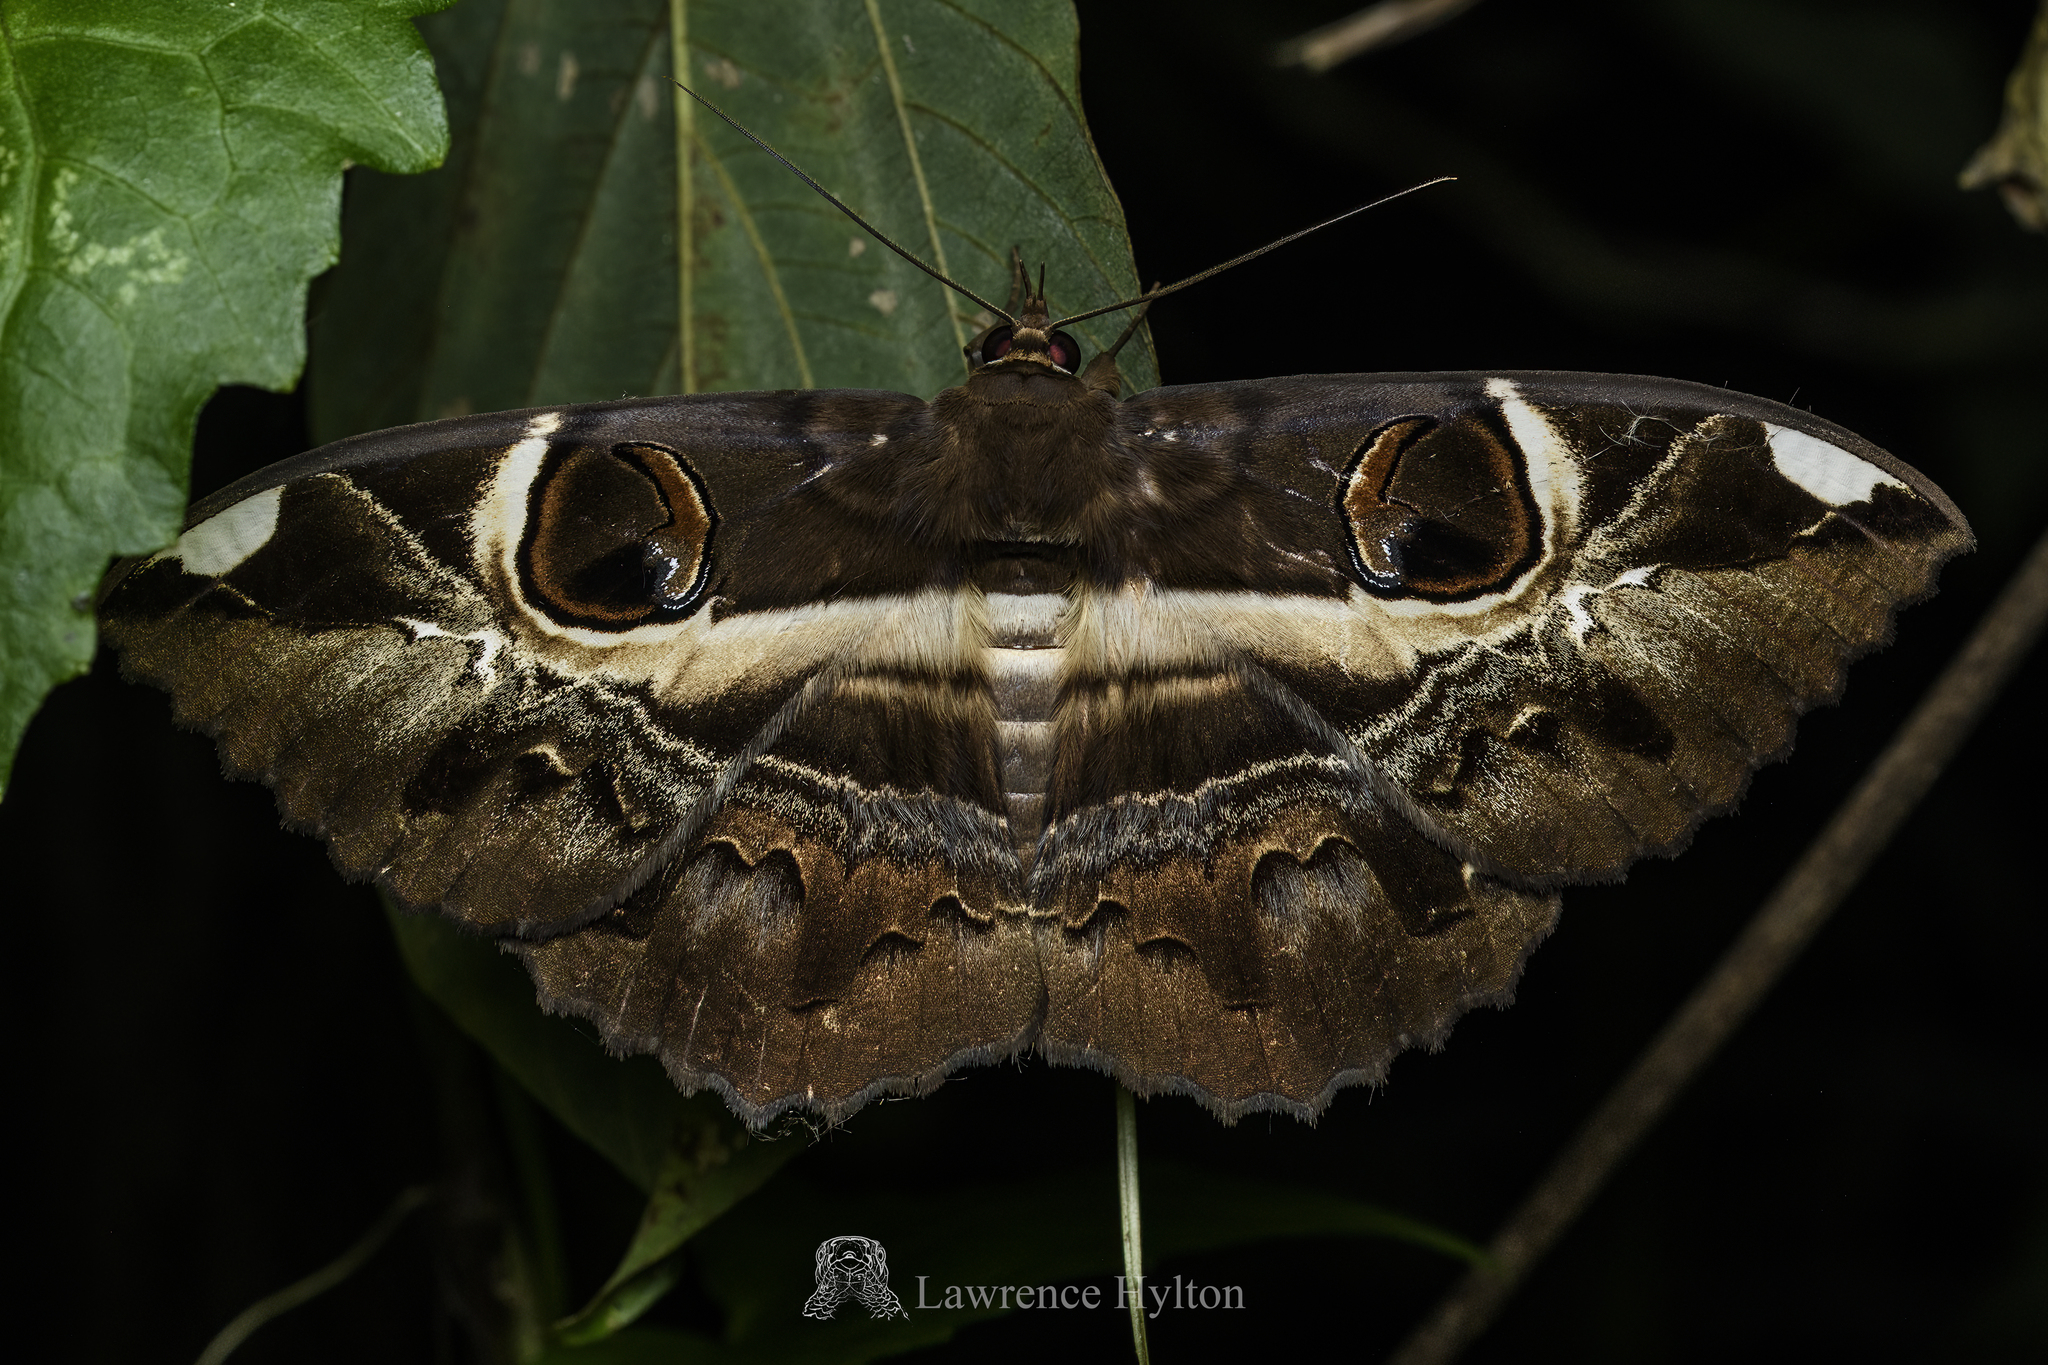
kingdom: Animalia
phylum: Arthropoda
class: Insecta
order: Lepidoptera
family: Erebidae
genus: Erebus
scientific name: Erebus ephesperis
